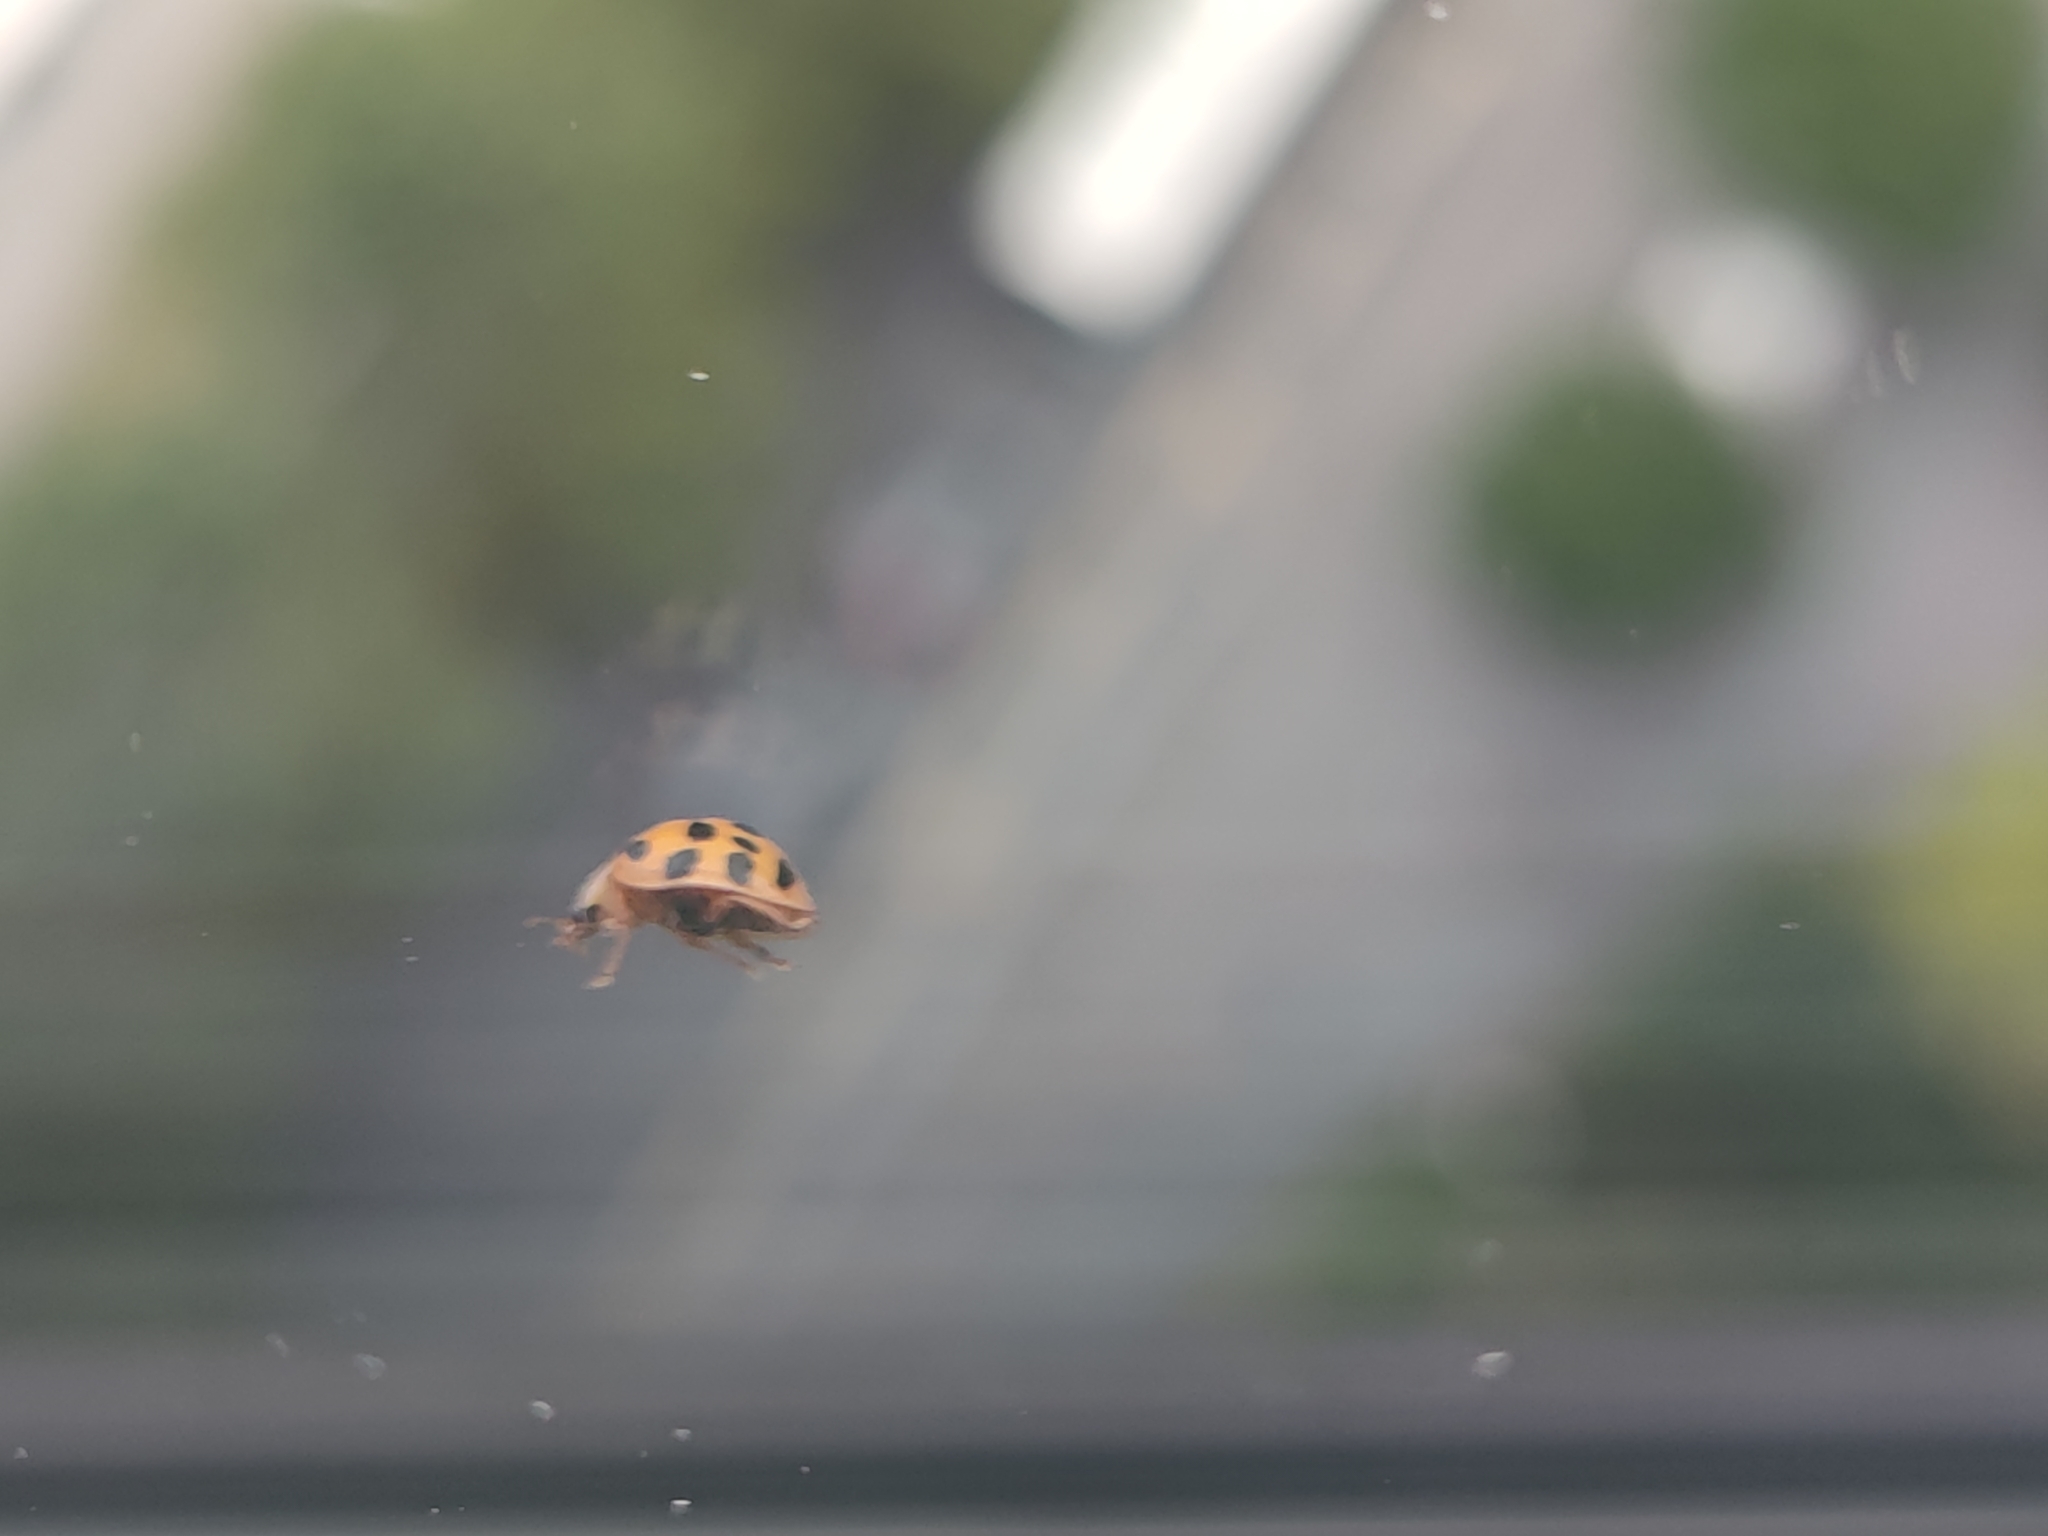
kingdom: Animalia
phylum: Arthropoda
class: Insecta
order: Coleoptera
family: Coccinellidae
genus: Harmonia
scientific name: Harmonia axyridis
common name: Harlequin ladybird
